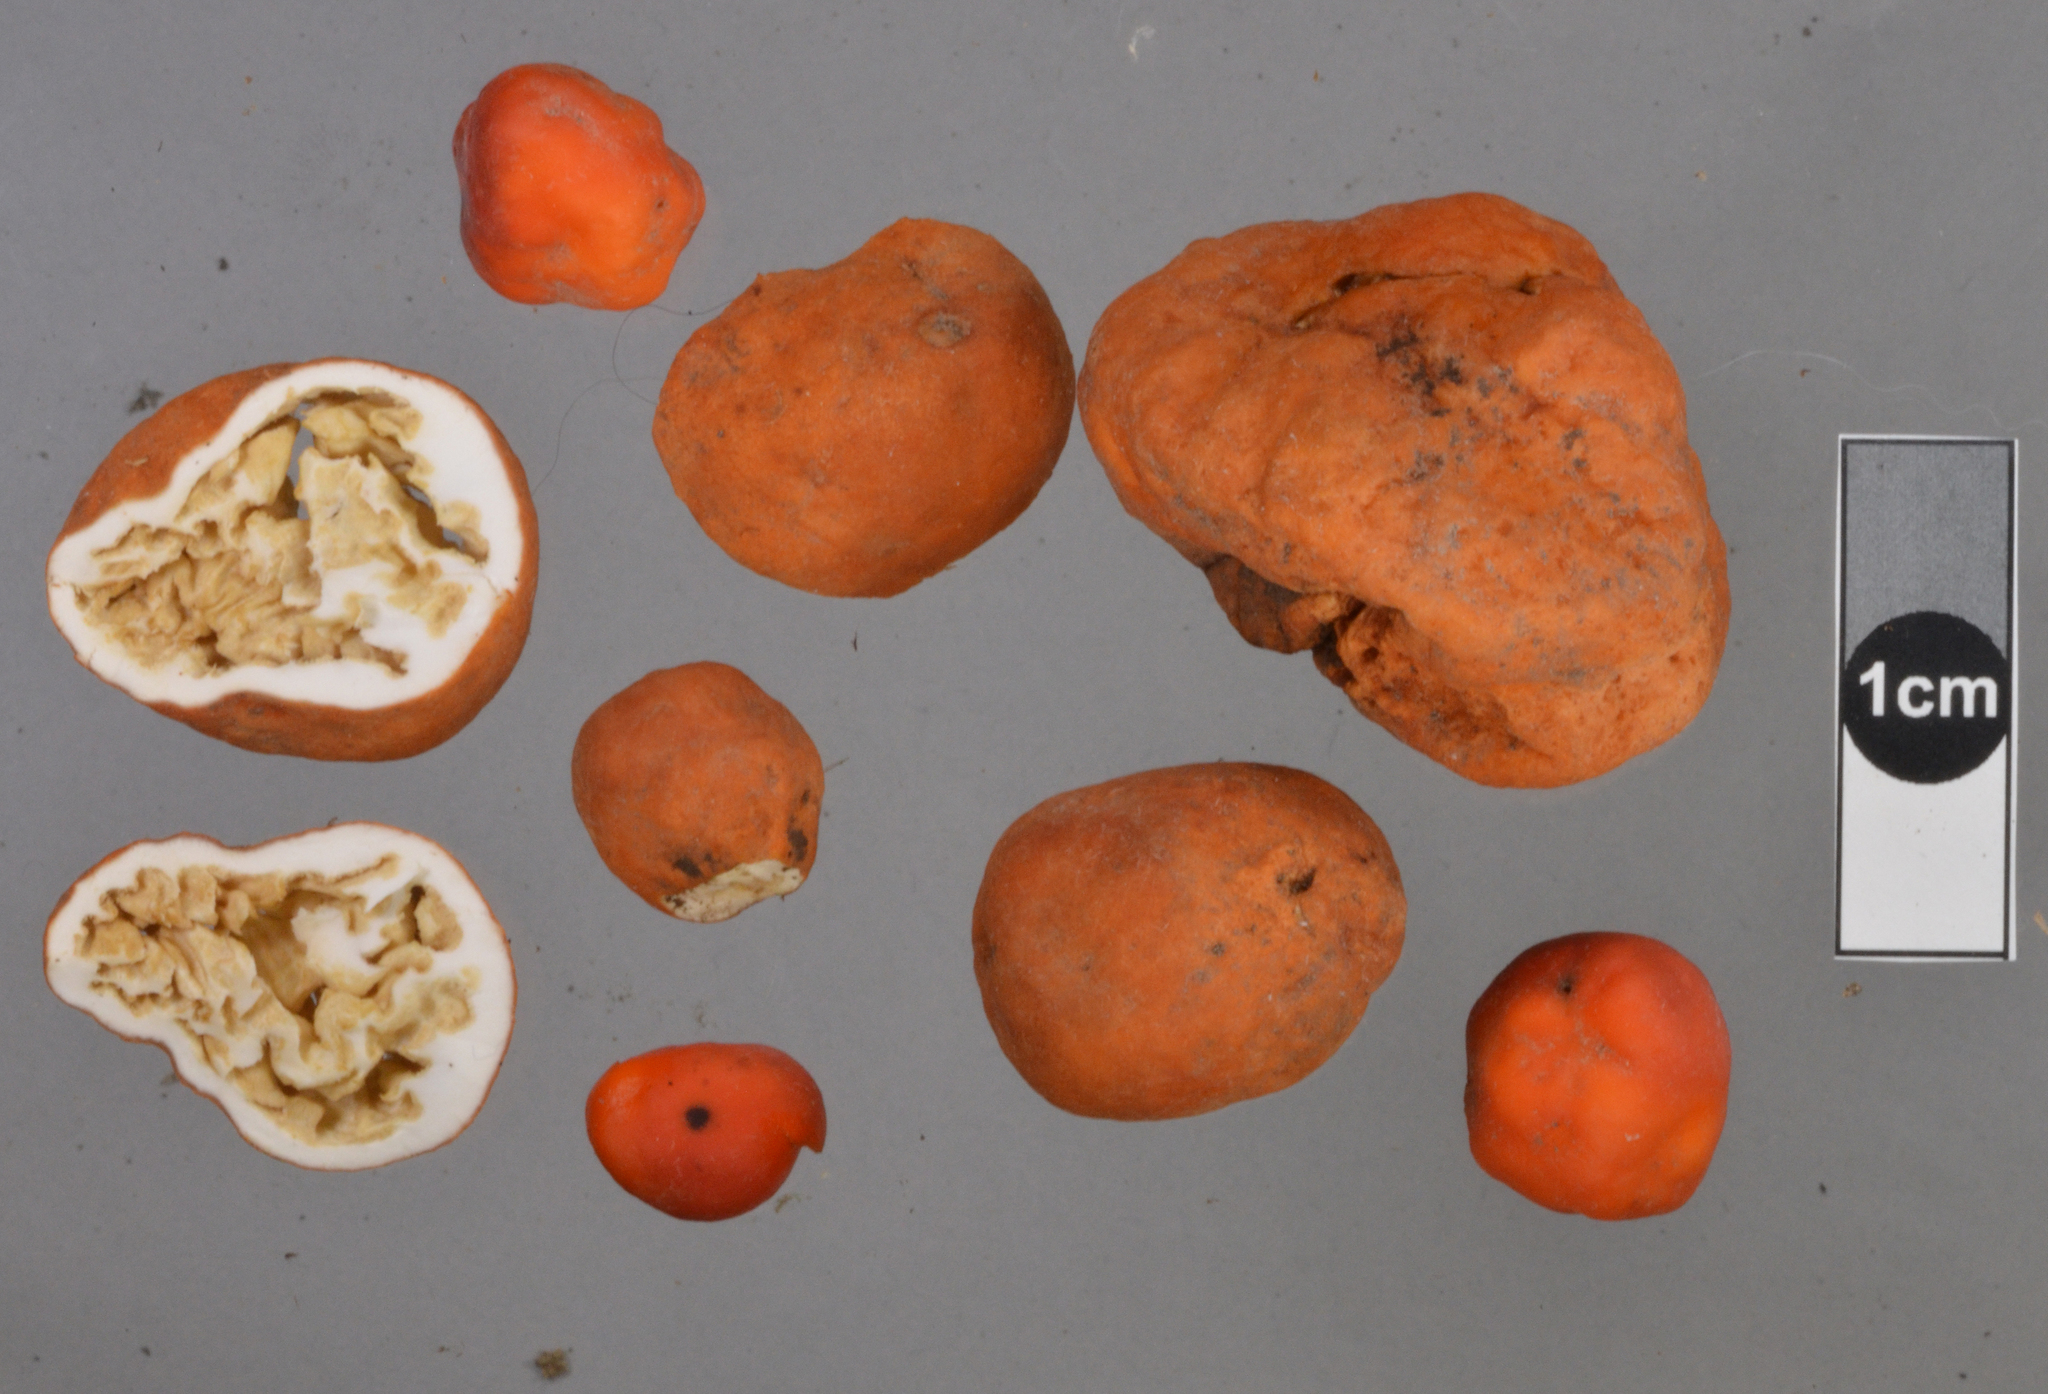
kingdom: Fungi
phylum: Ascomycota
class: Pezizomycetes
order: Pezizales
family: Pyronemataceae
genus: Paurocotylis
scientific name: Paurocotylis pila
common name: Scarlet berry truffle
